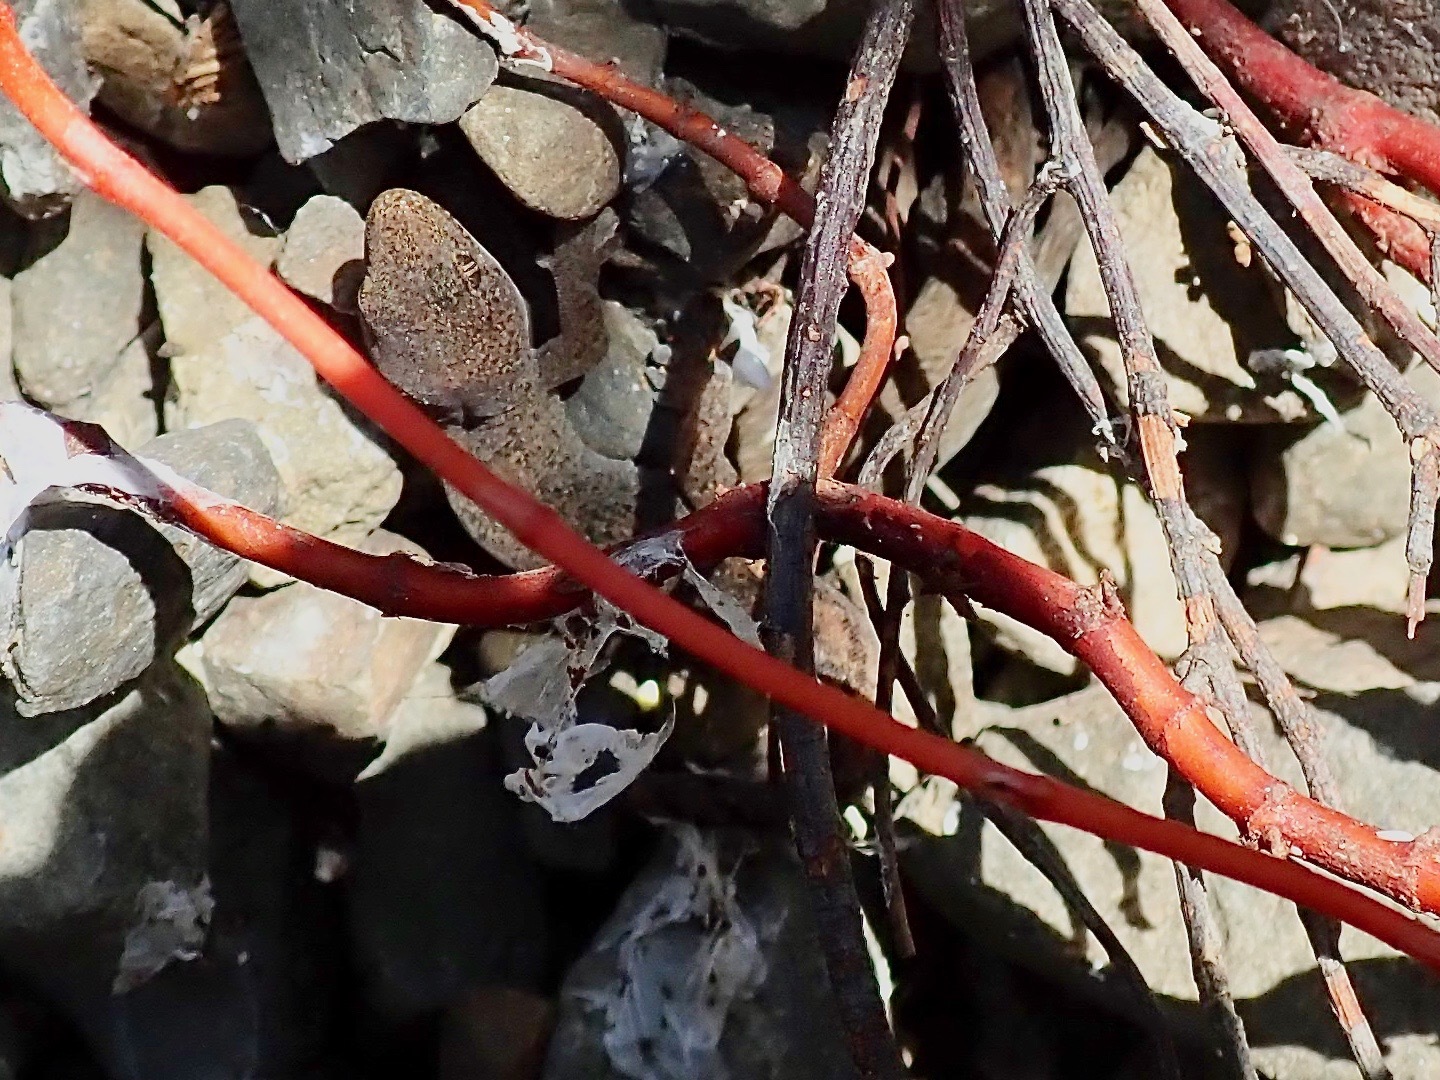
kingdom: Animalia
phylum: Chordata
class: Squamata
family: Diplodactylidae
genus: Woodworthia
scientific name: Woodworthia
